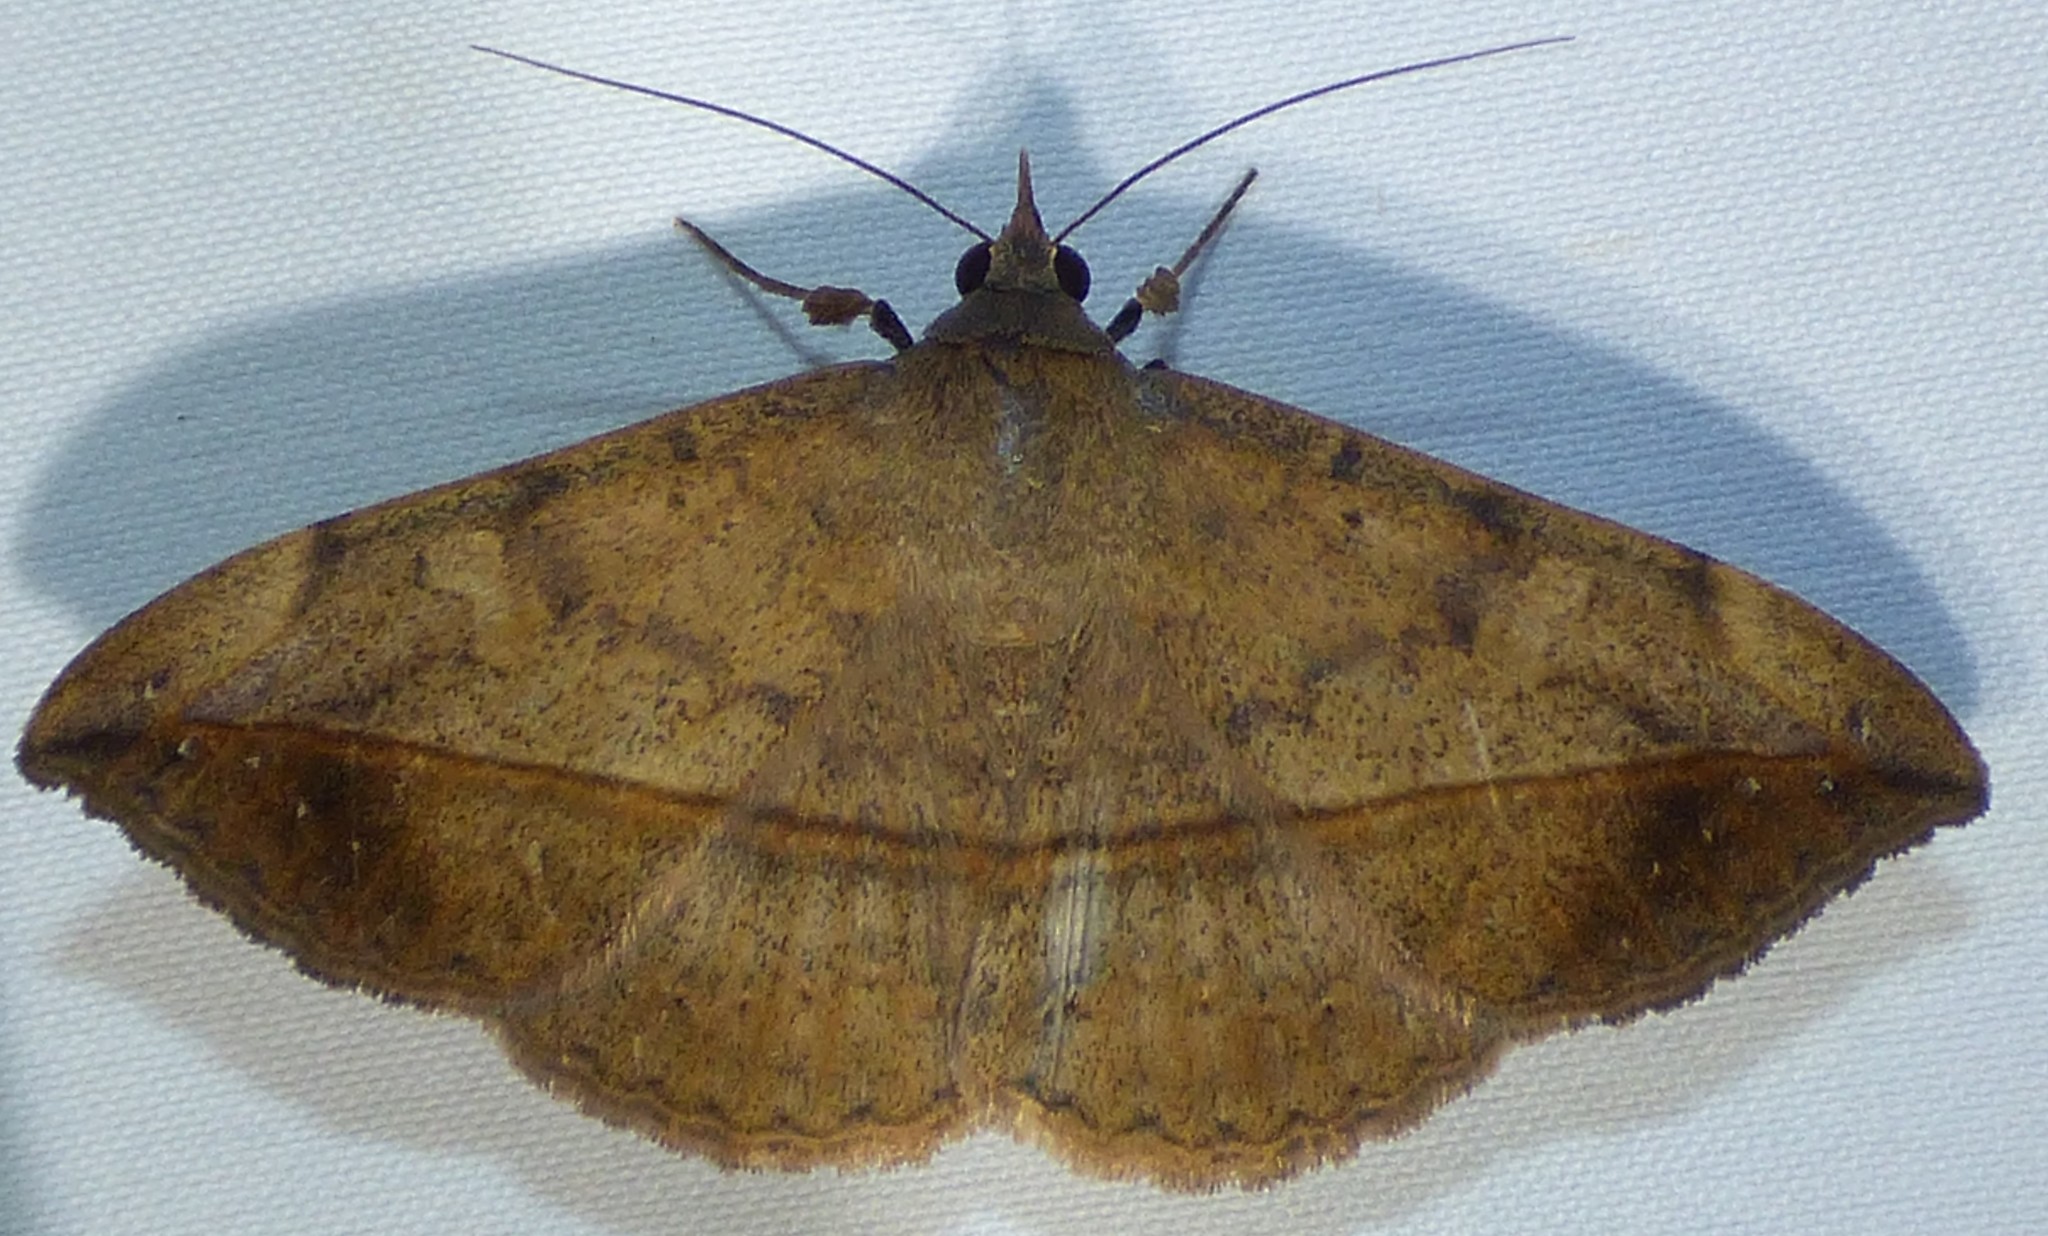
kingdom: Animalia
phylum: Arthropoda
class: Insecta
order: Lepidoptera
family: Erebidae
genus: Anticarsia
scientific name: Anticarsia gemmatalis
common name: Cutworm moth
